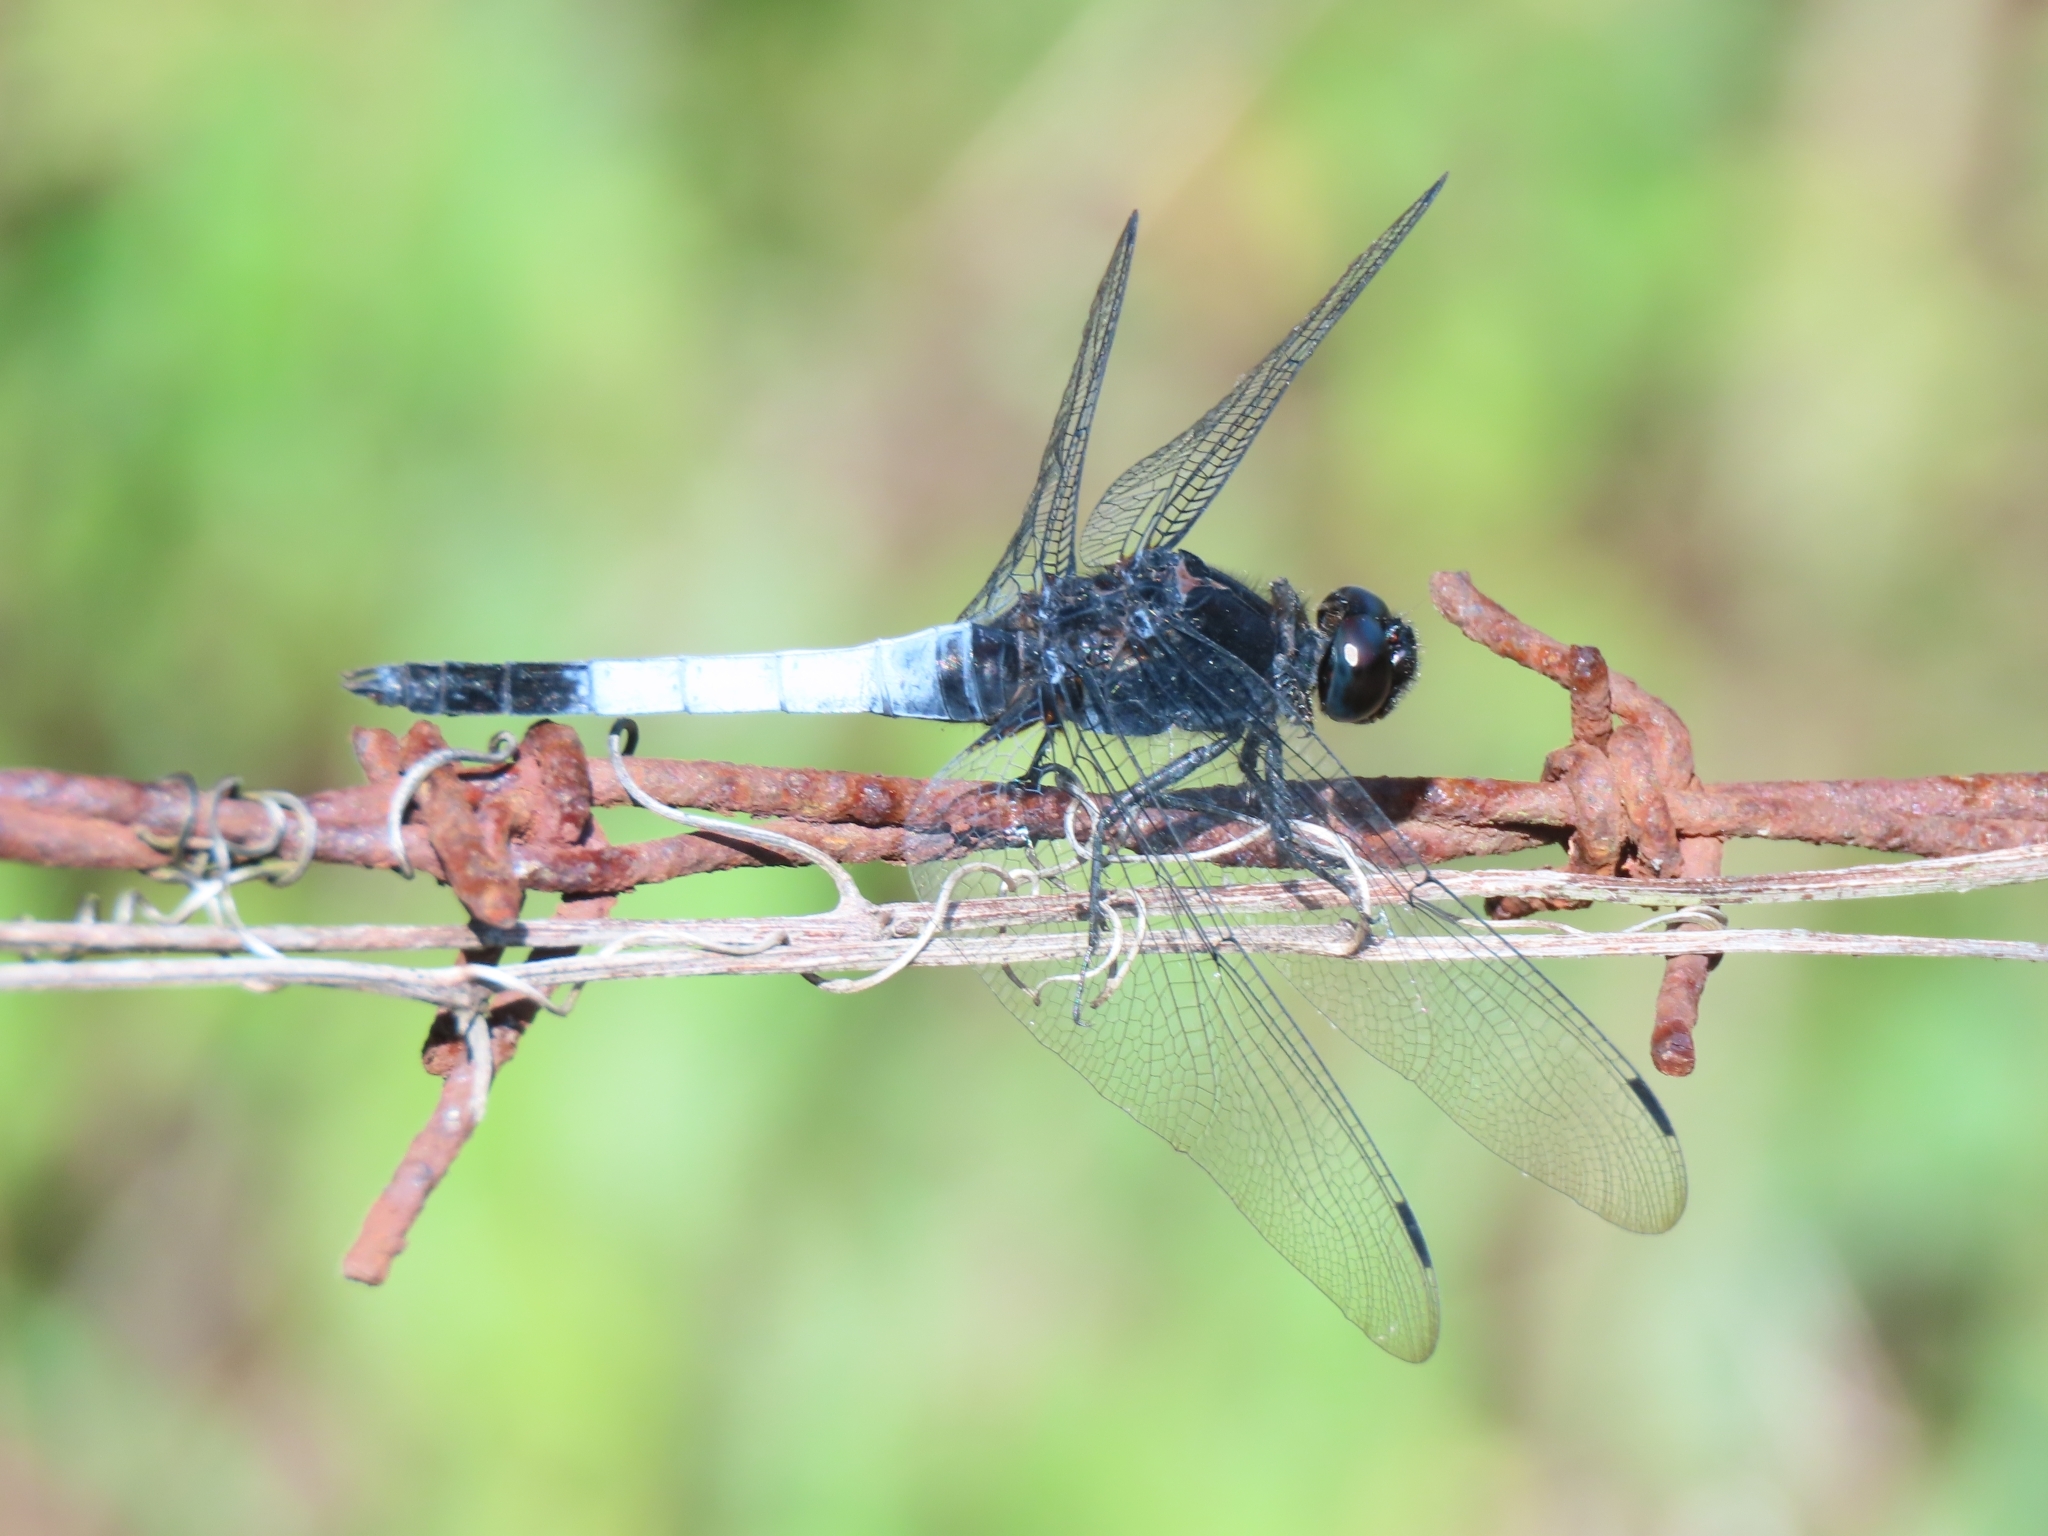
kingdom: Animalia
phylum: Arthropoda
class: Insecta
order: Odonata
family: Libellulidae
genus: Orthetrum
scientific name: Orthetrum triangulare
